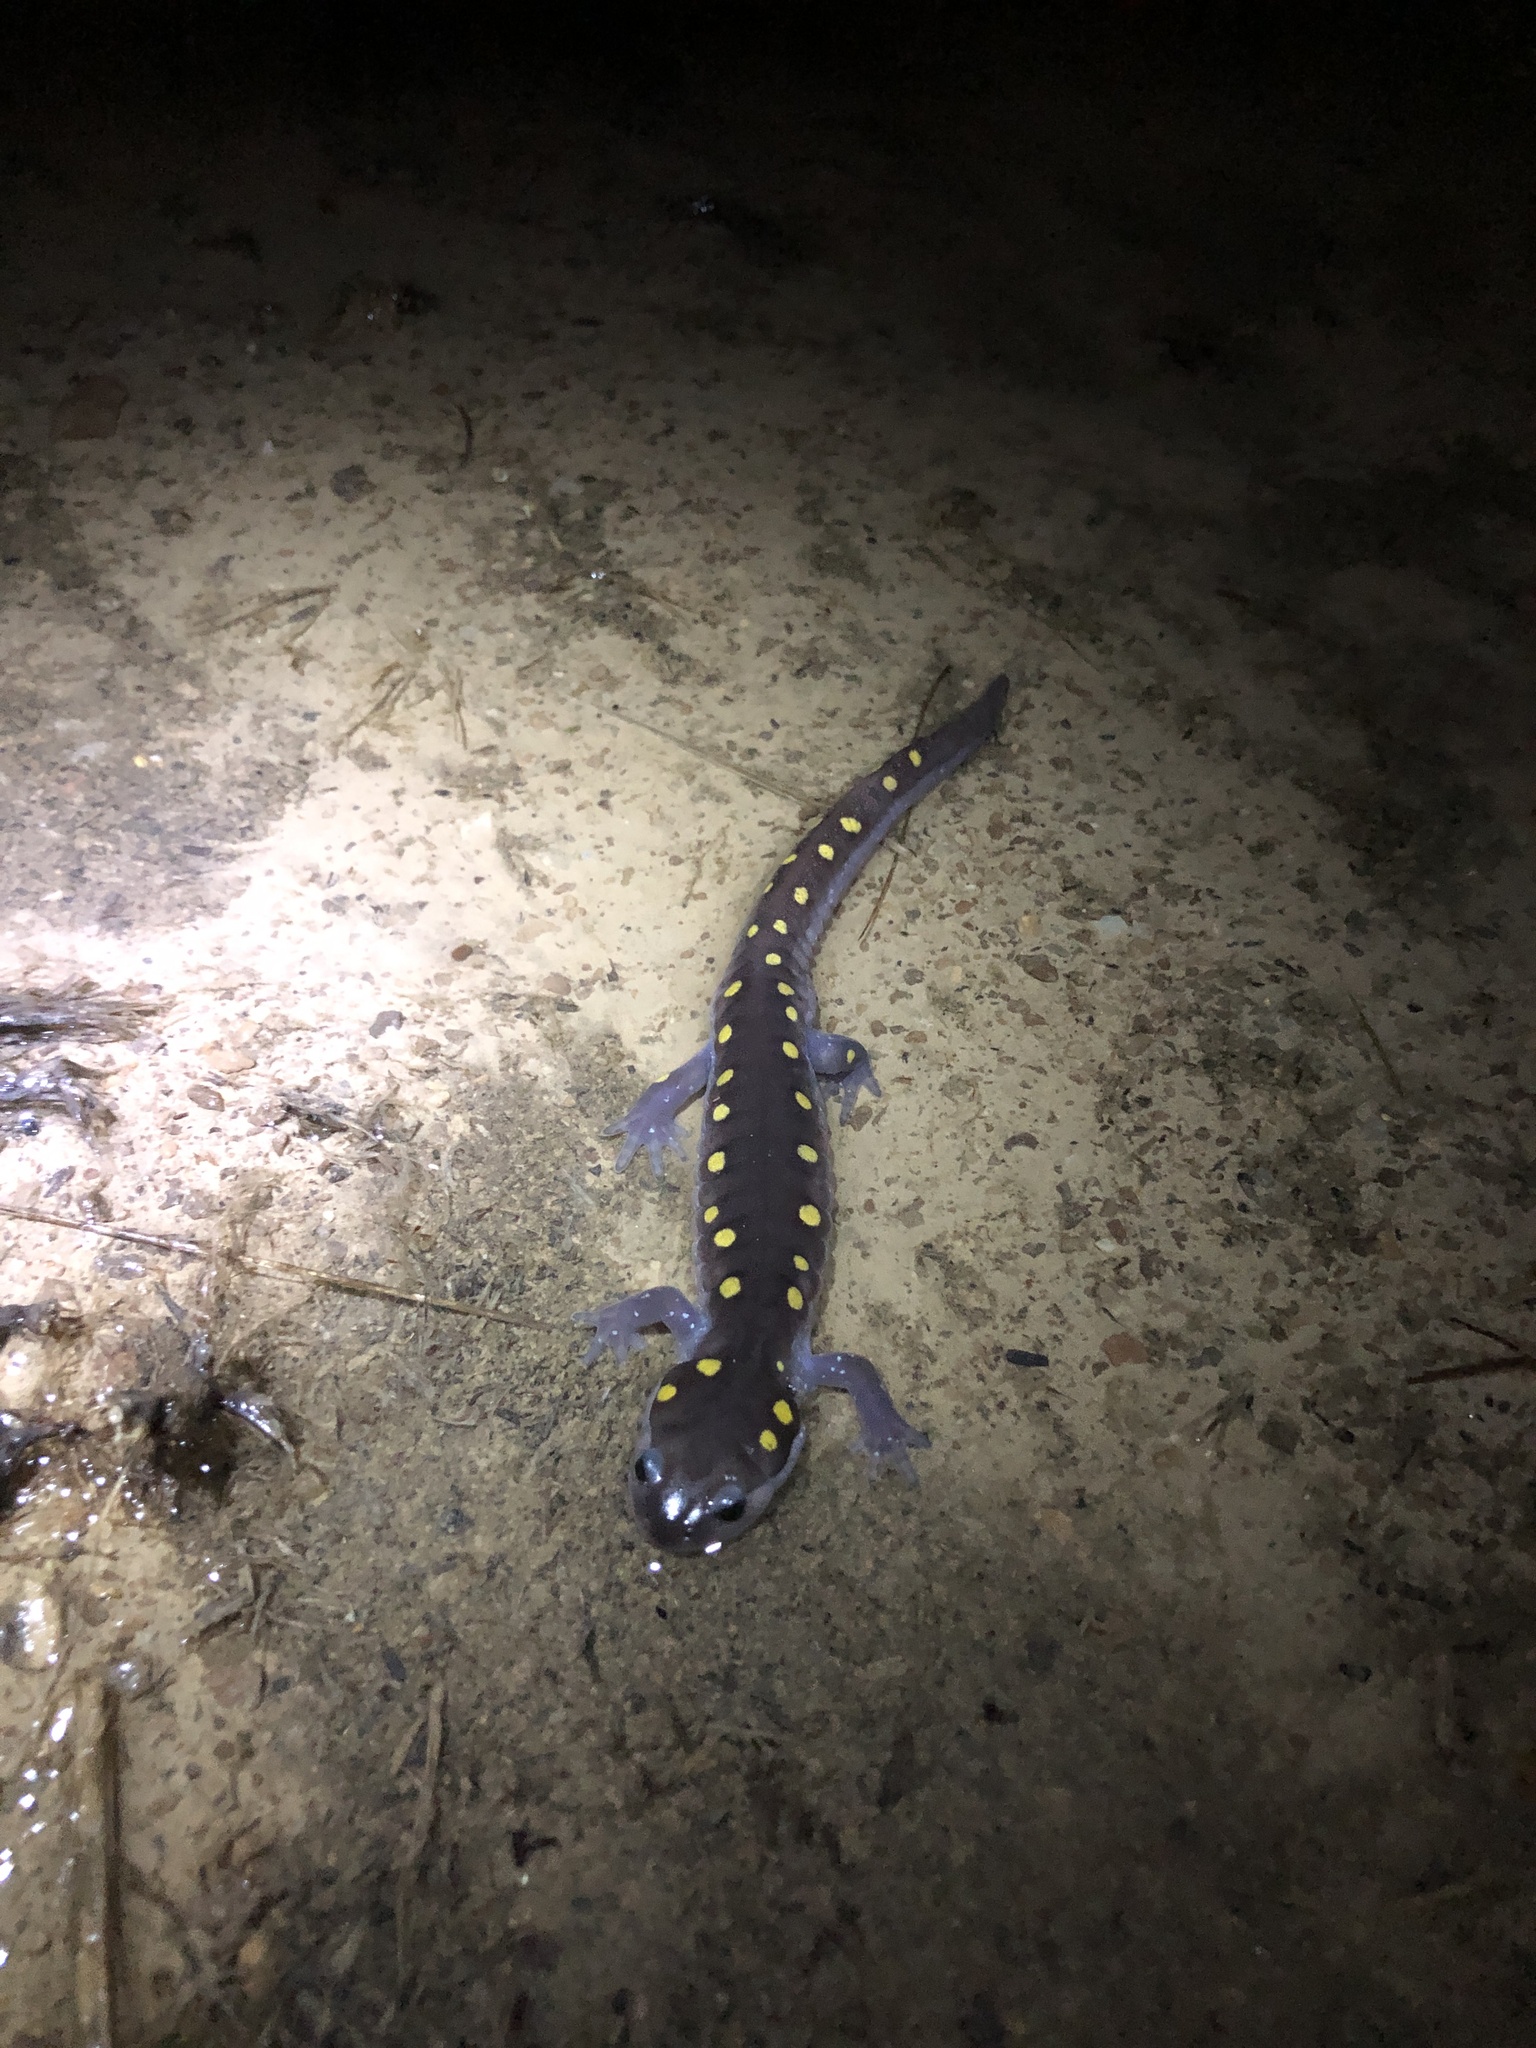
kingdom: Animalia
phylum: Chordata
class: Amphibia
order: Caudata
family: Ambystomatidae
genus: Ambystoma
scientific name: Ambystoma maculatum
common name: Spotted salamander
